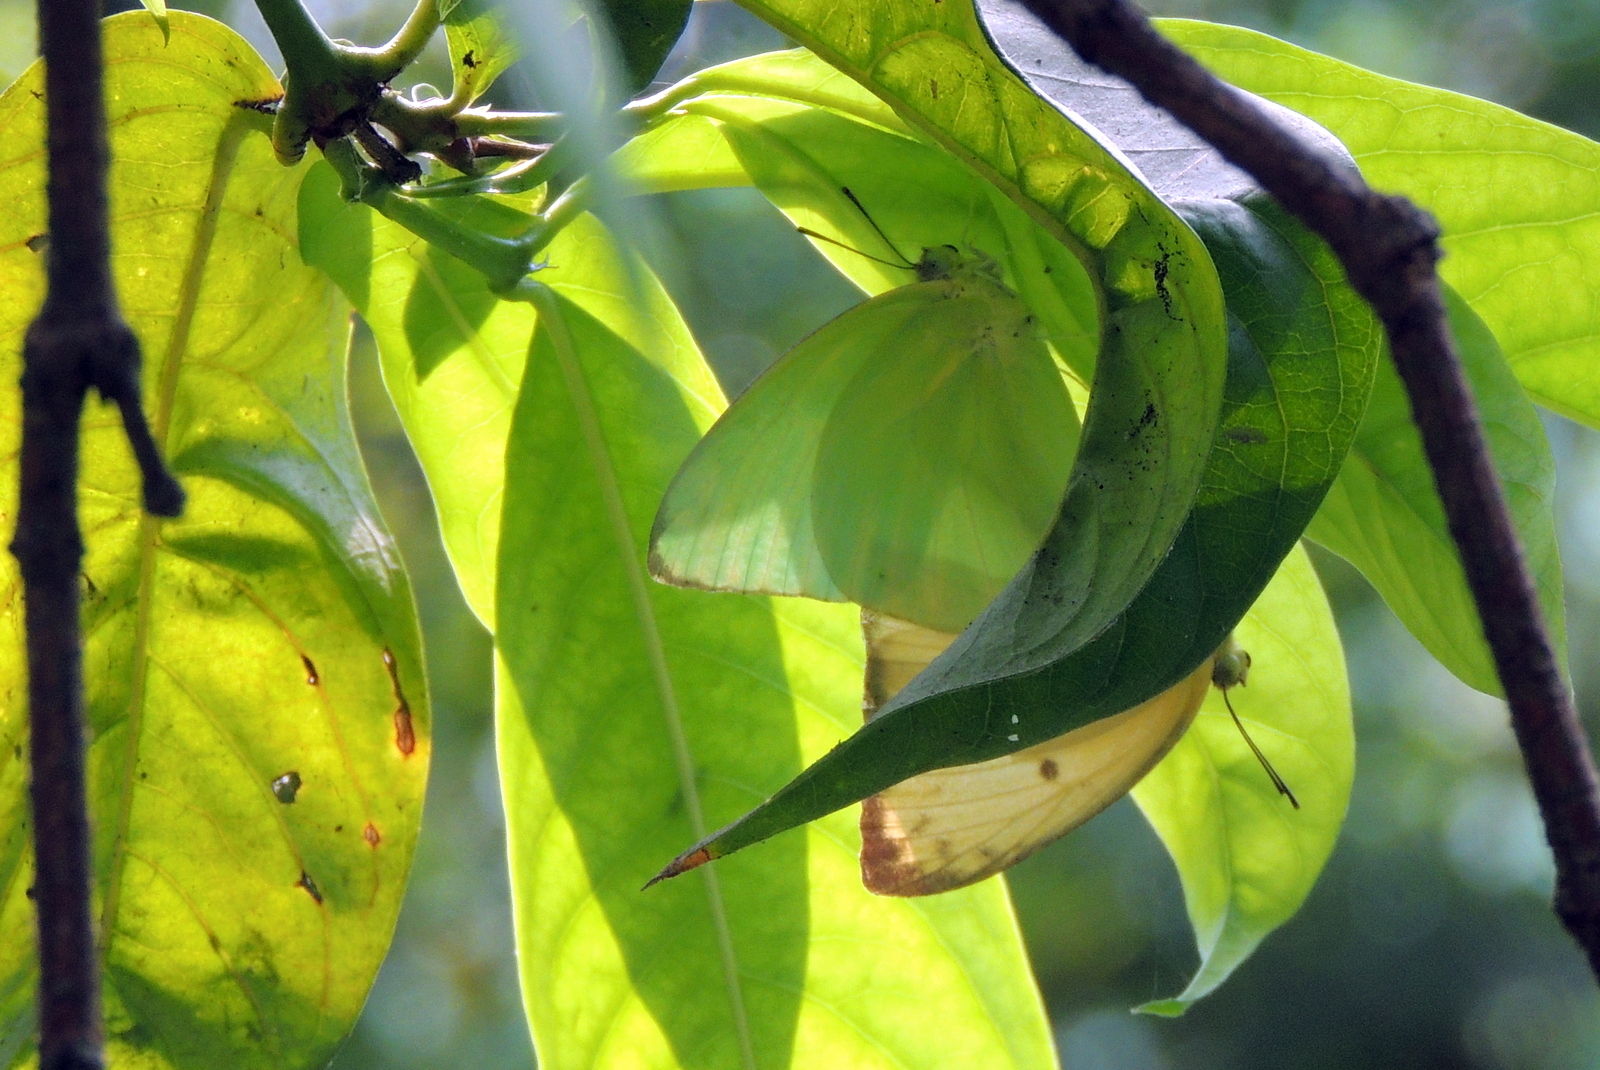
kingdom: Animalia
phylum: Arthropoda
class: Insecta
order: Lepidoptera
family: Pieridae
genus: Catopsilia
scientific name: Catopsilia pomona
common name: Common emigrant
